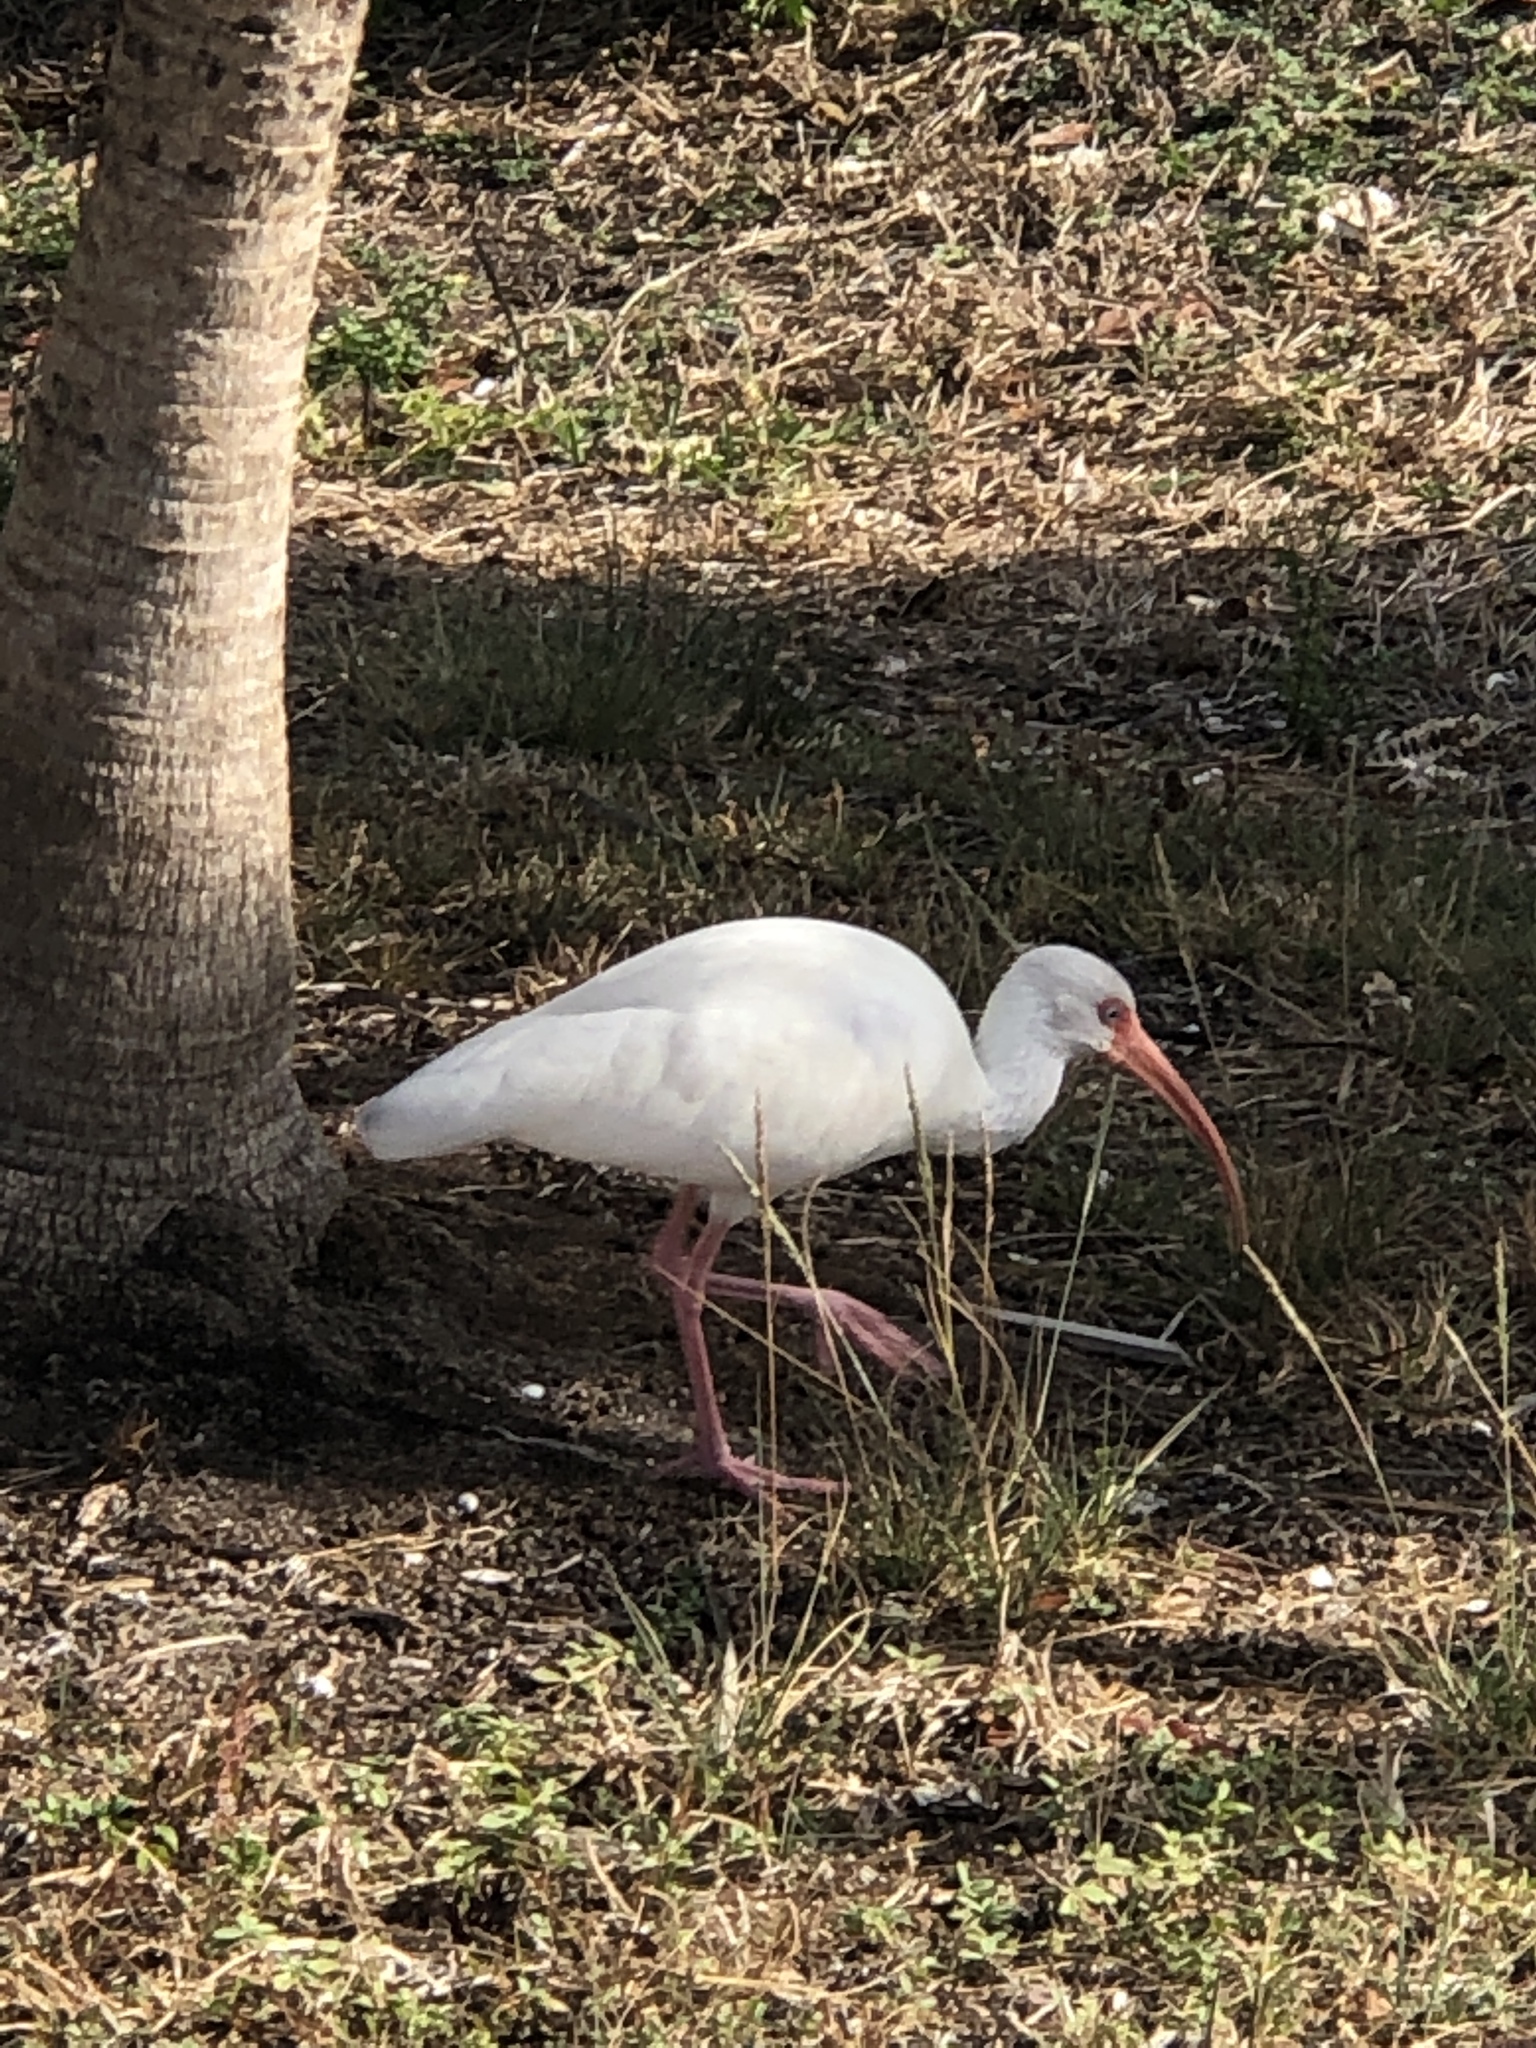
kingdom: Animalia
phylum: Chordata
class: Aves
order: Pelecaniformes
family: Threskiornithidae
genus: Eudocimus
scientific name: Eudocimus albus
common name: White ibis
